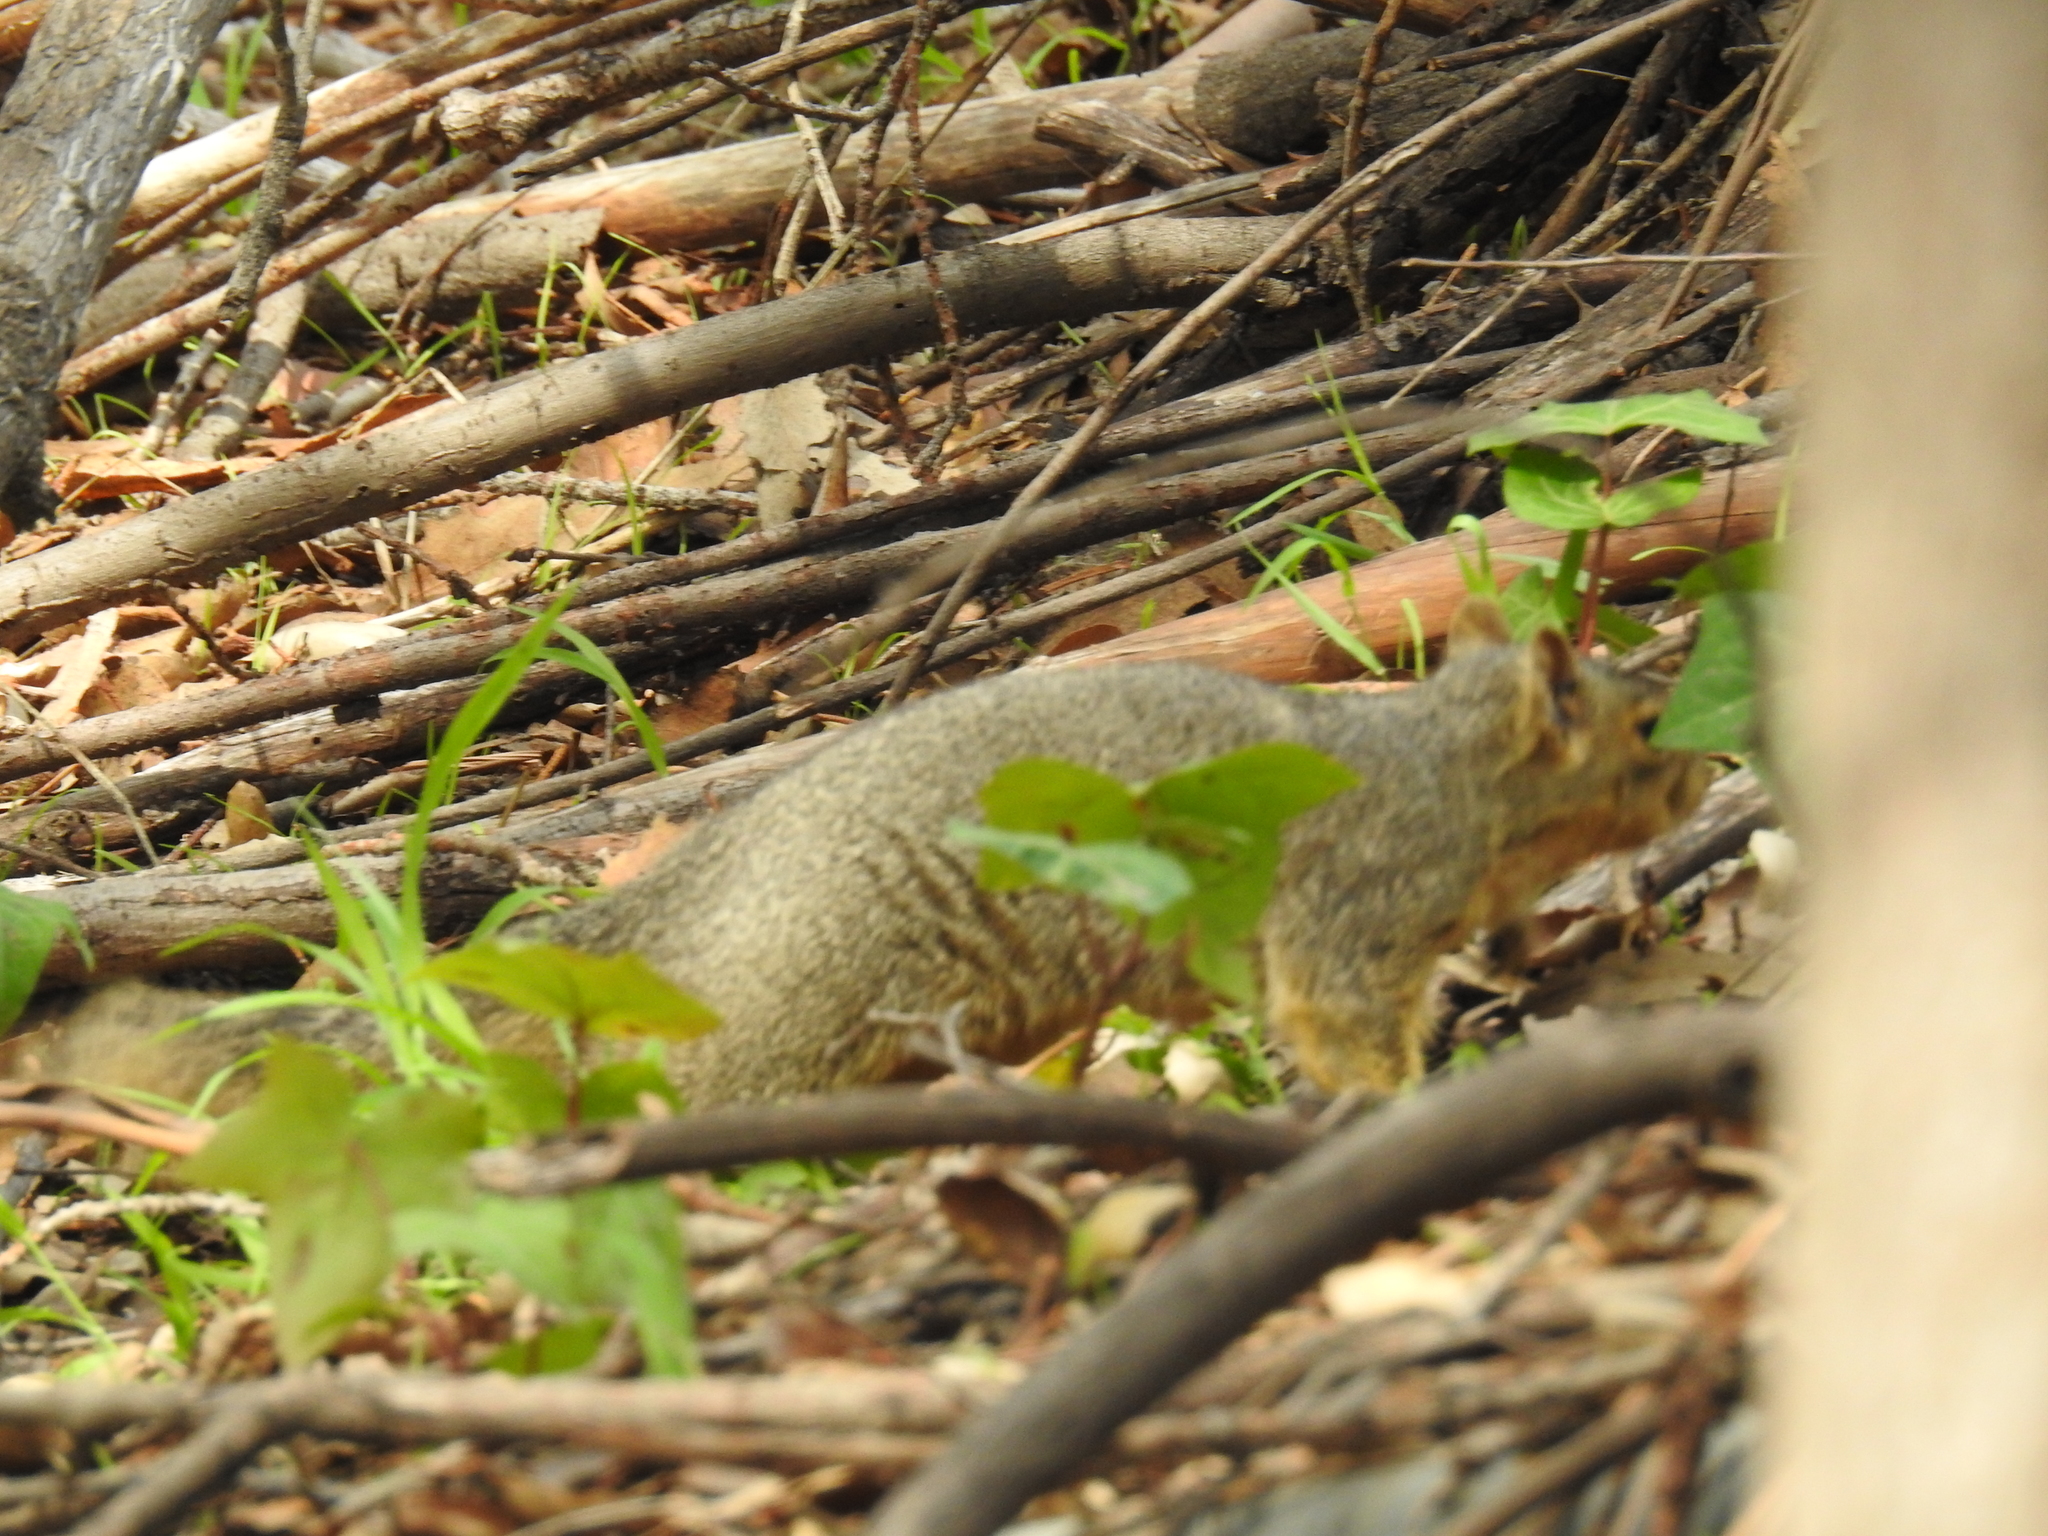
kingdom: Animalia
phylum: Chordata
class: Mammalia
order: Rodentia
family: Sciuridae
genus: Sciurus
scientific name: Sciurus niger
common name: Fox squirrel
